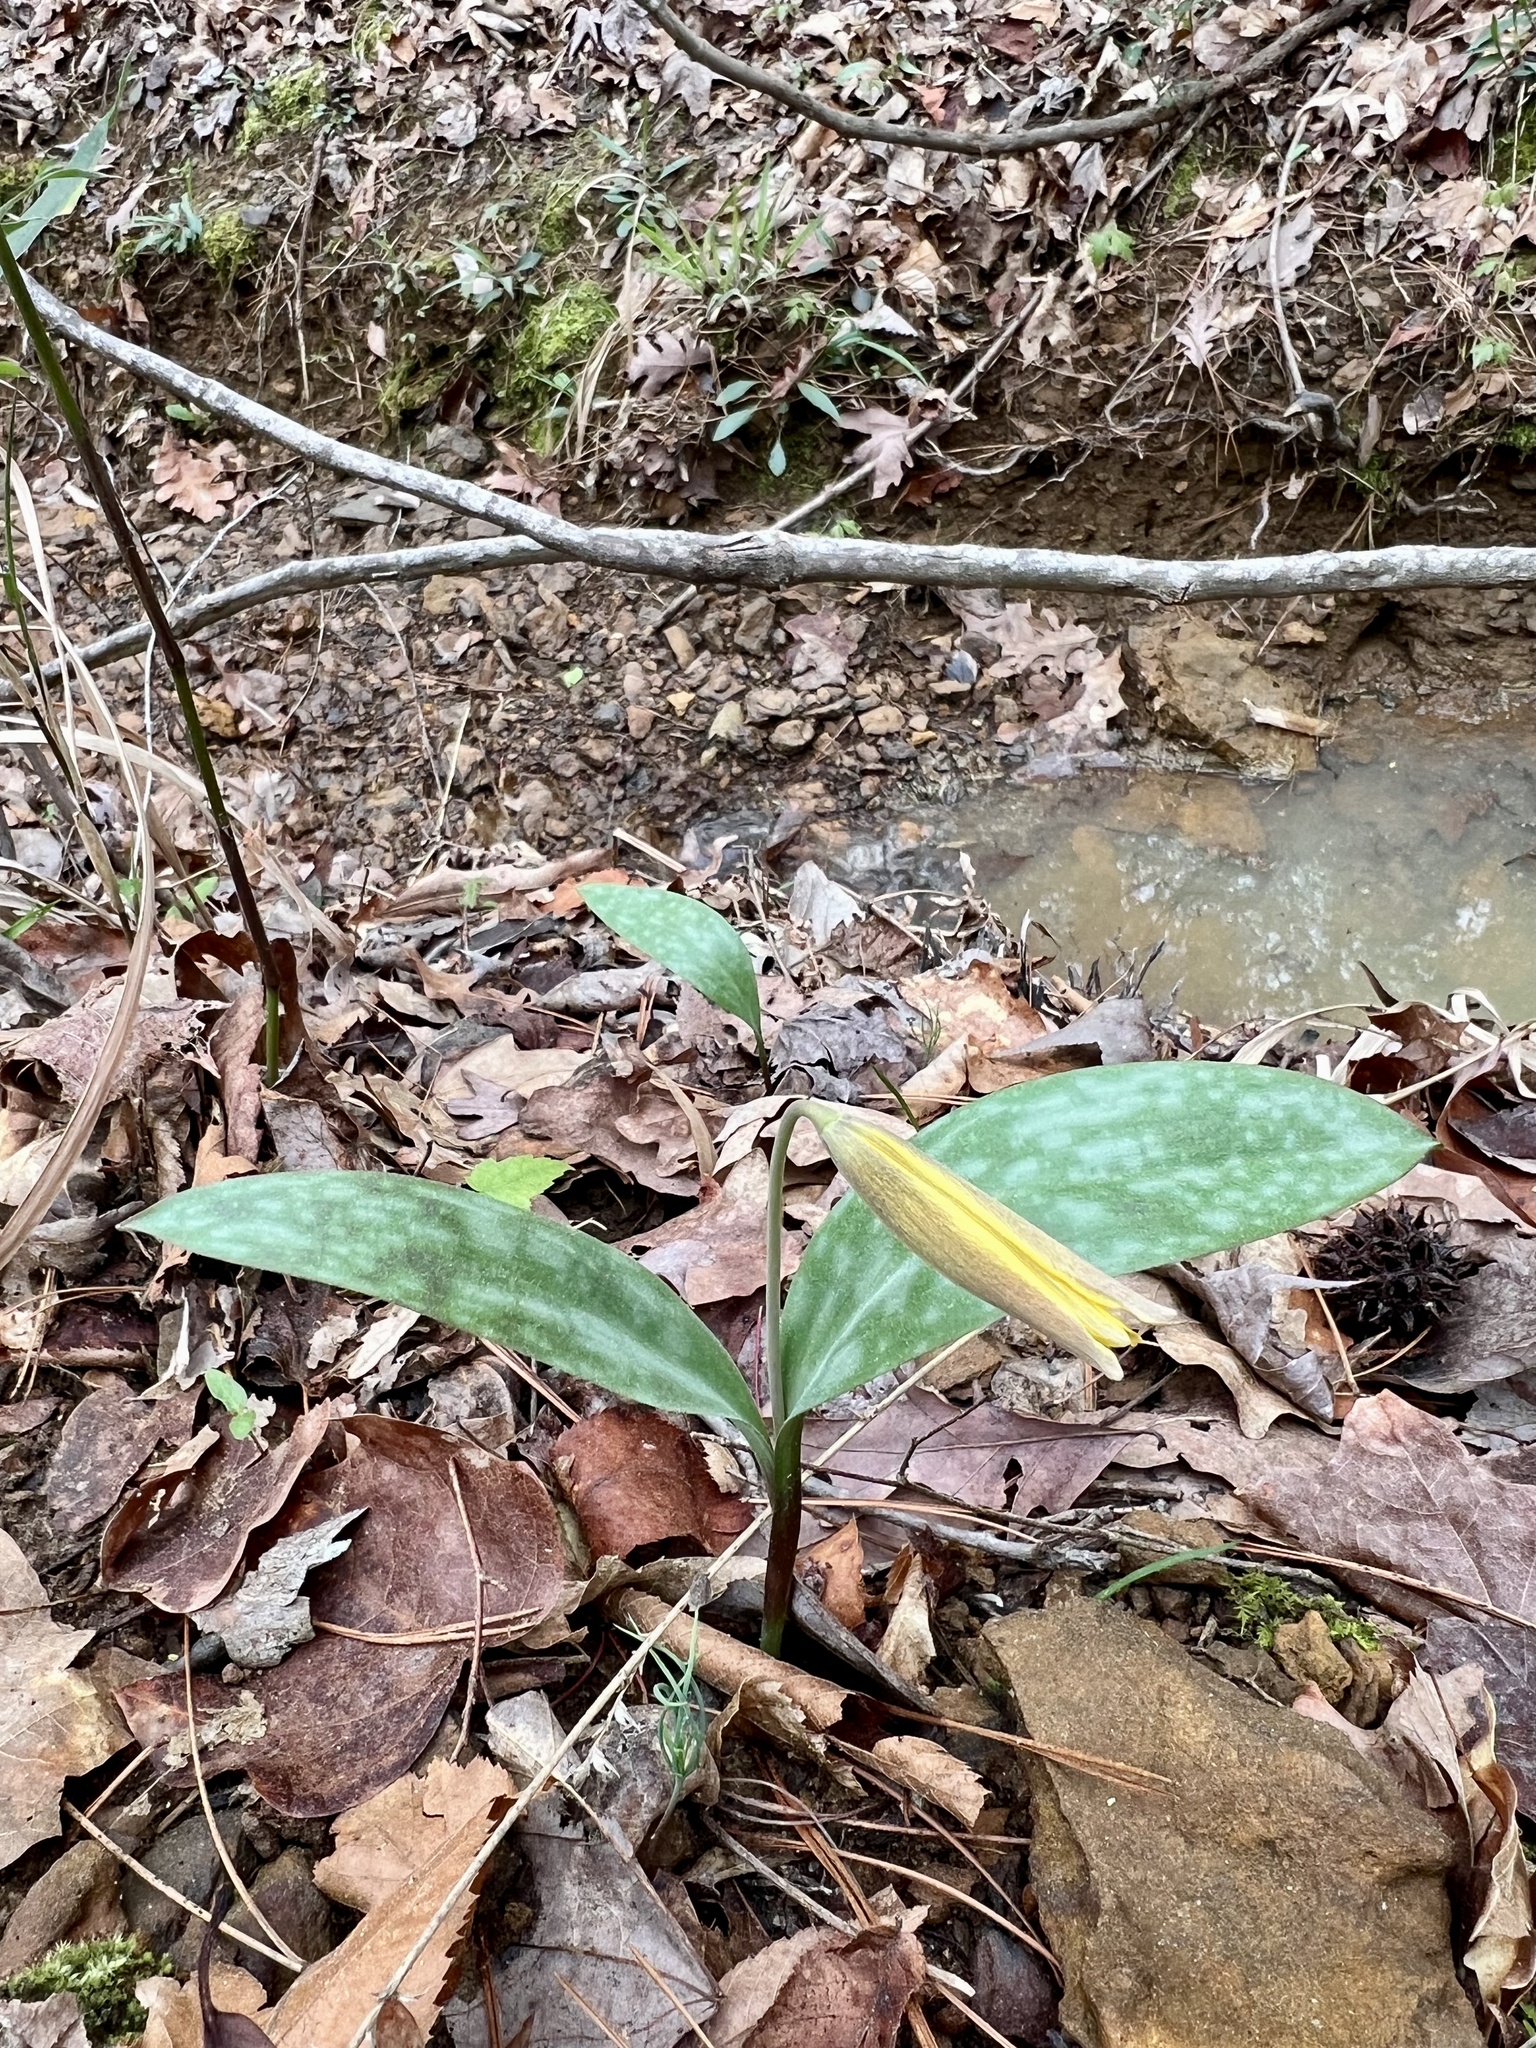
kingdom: Plantae
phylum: Tracheophyta
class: Liliopsida
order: Liliales
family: Liliaceae
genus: Erythronium
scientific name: Erythronium rostratum
